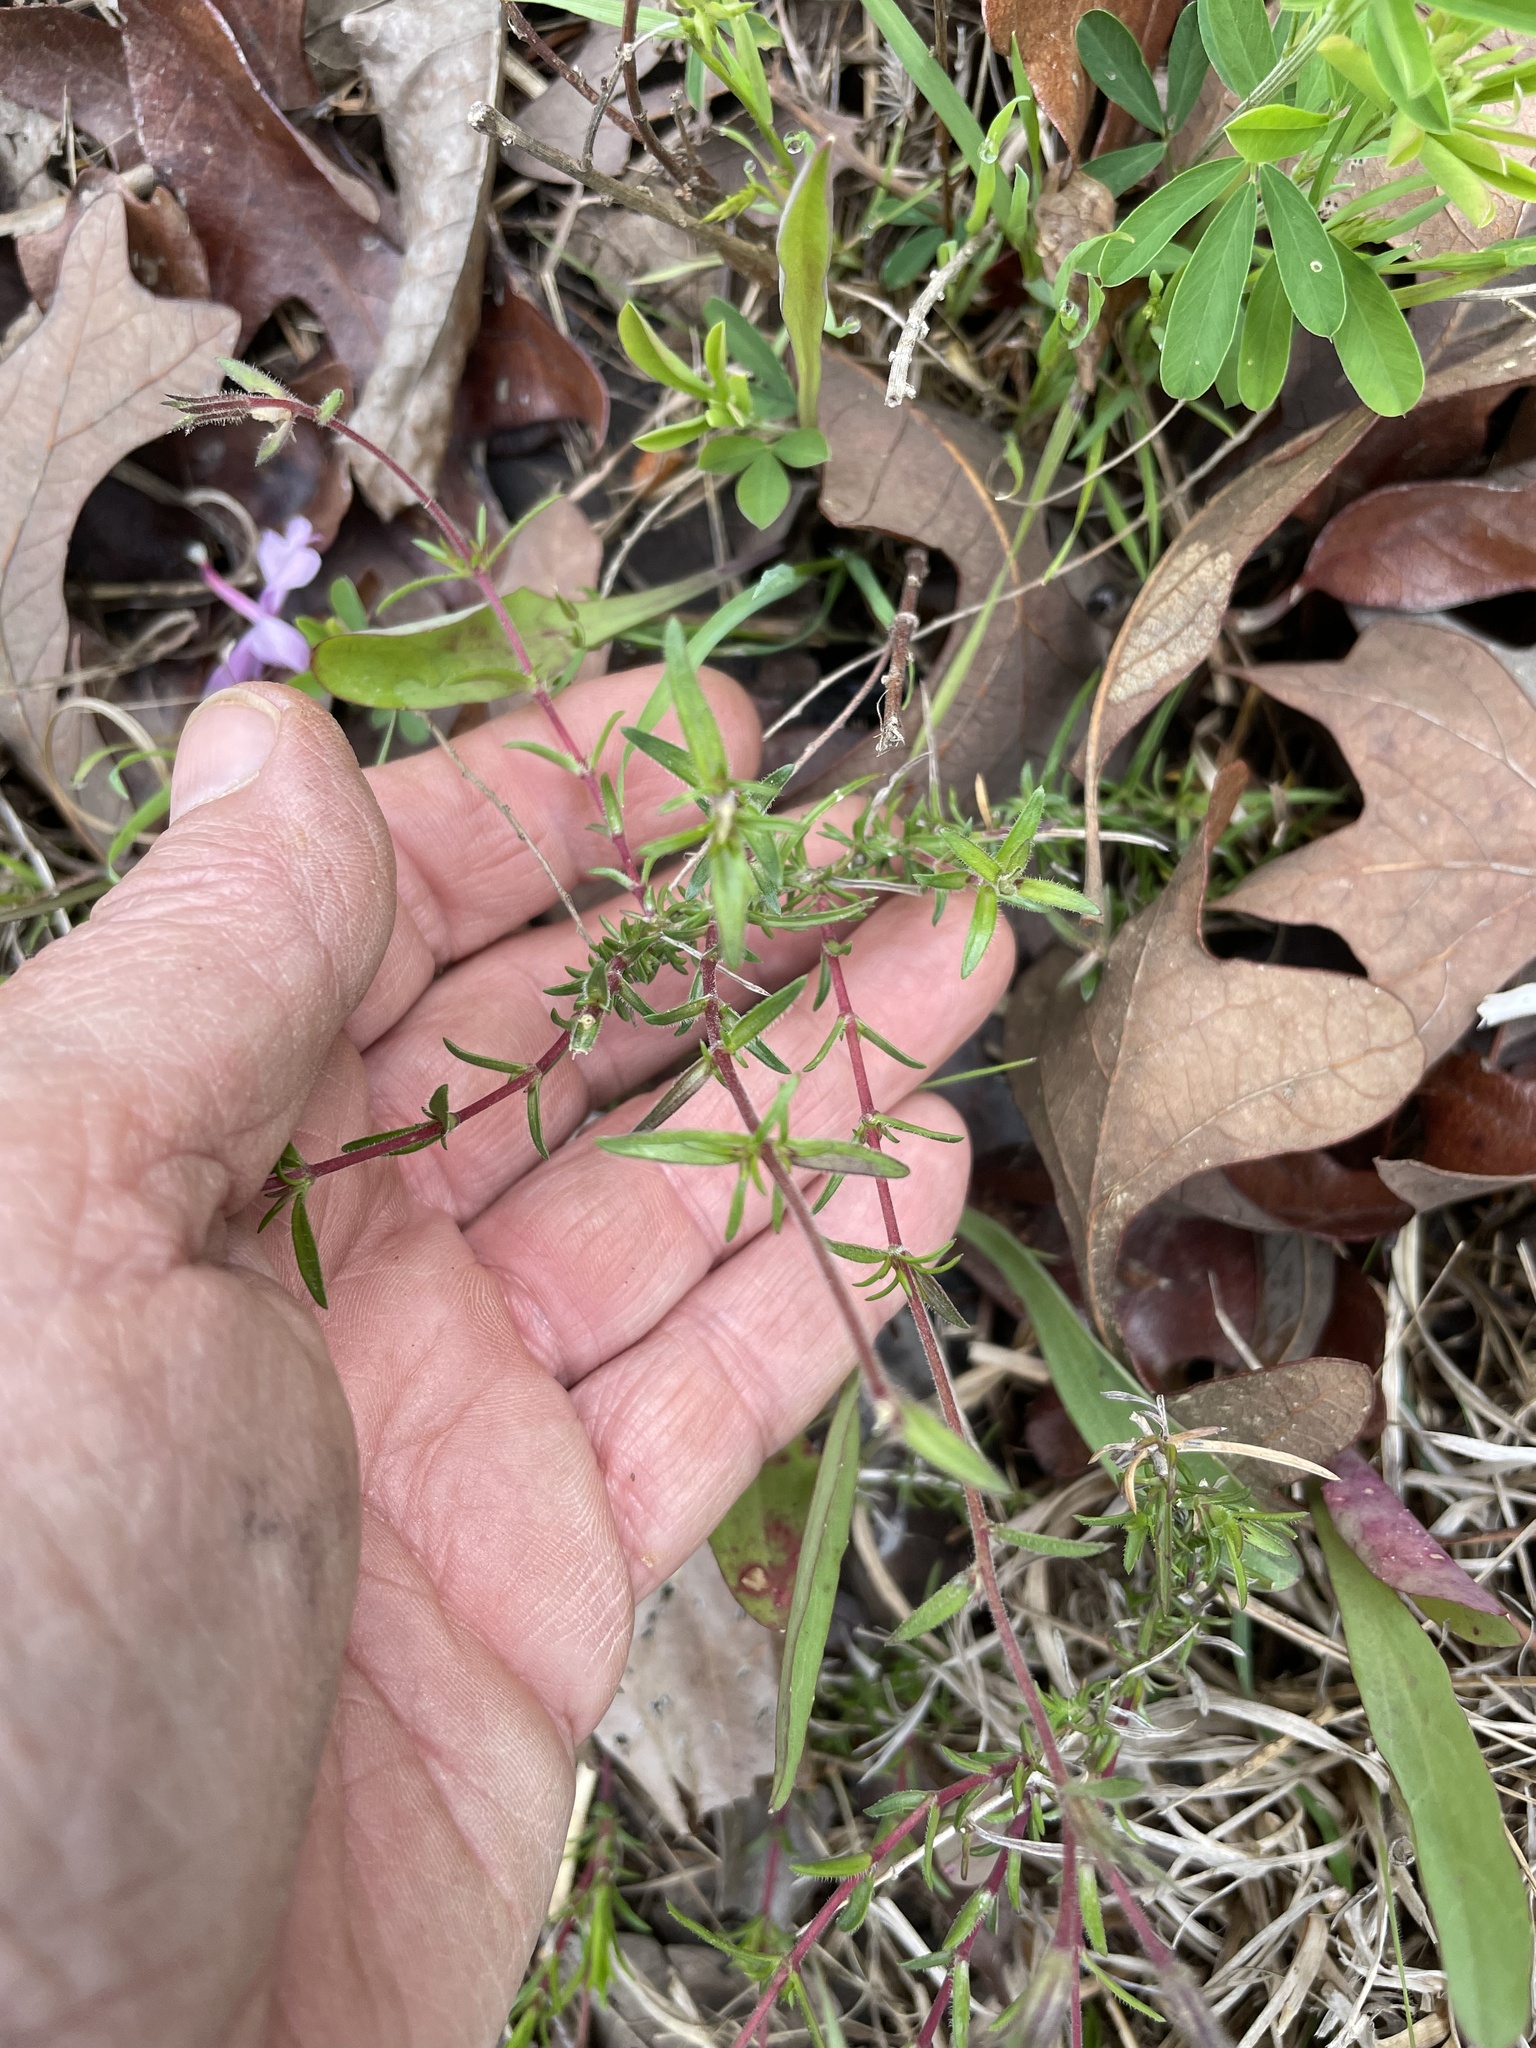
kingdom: Plantae
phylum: Tracheophyta
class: Magnoliopsida
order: Ericales
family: Polemoniaceae
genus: Phlox
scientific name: Phlox nivalis
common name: Trailing phlox
